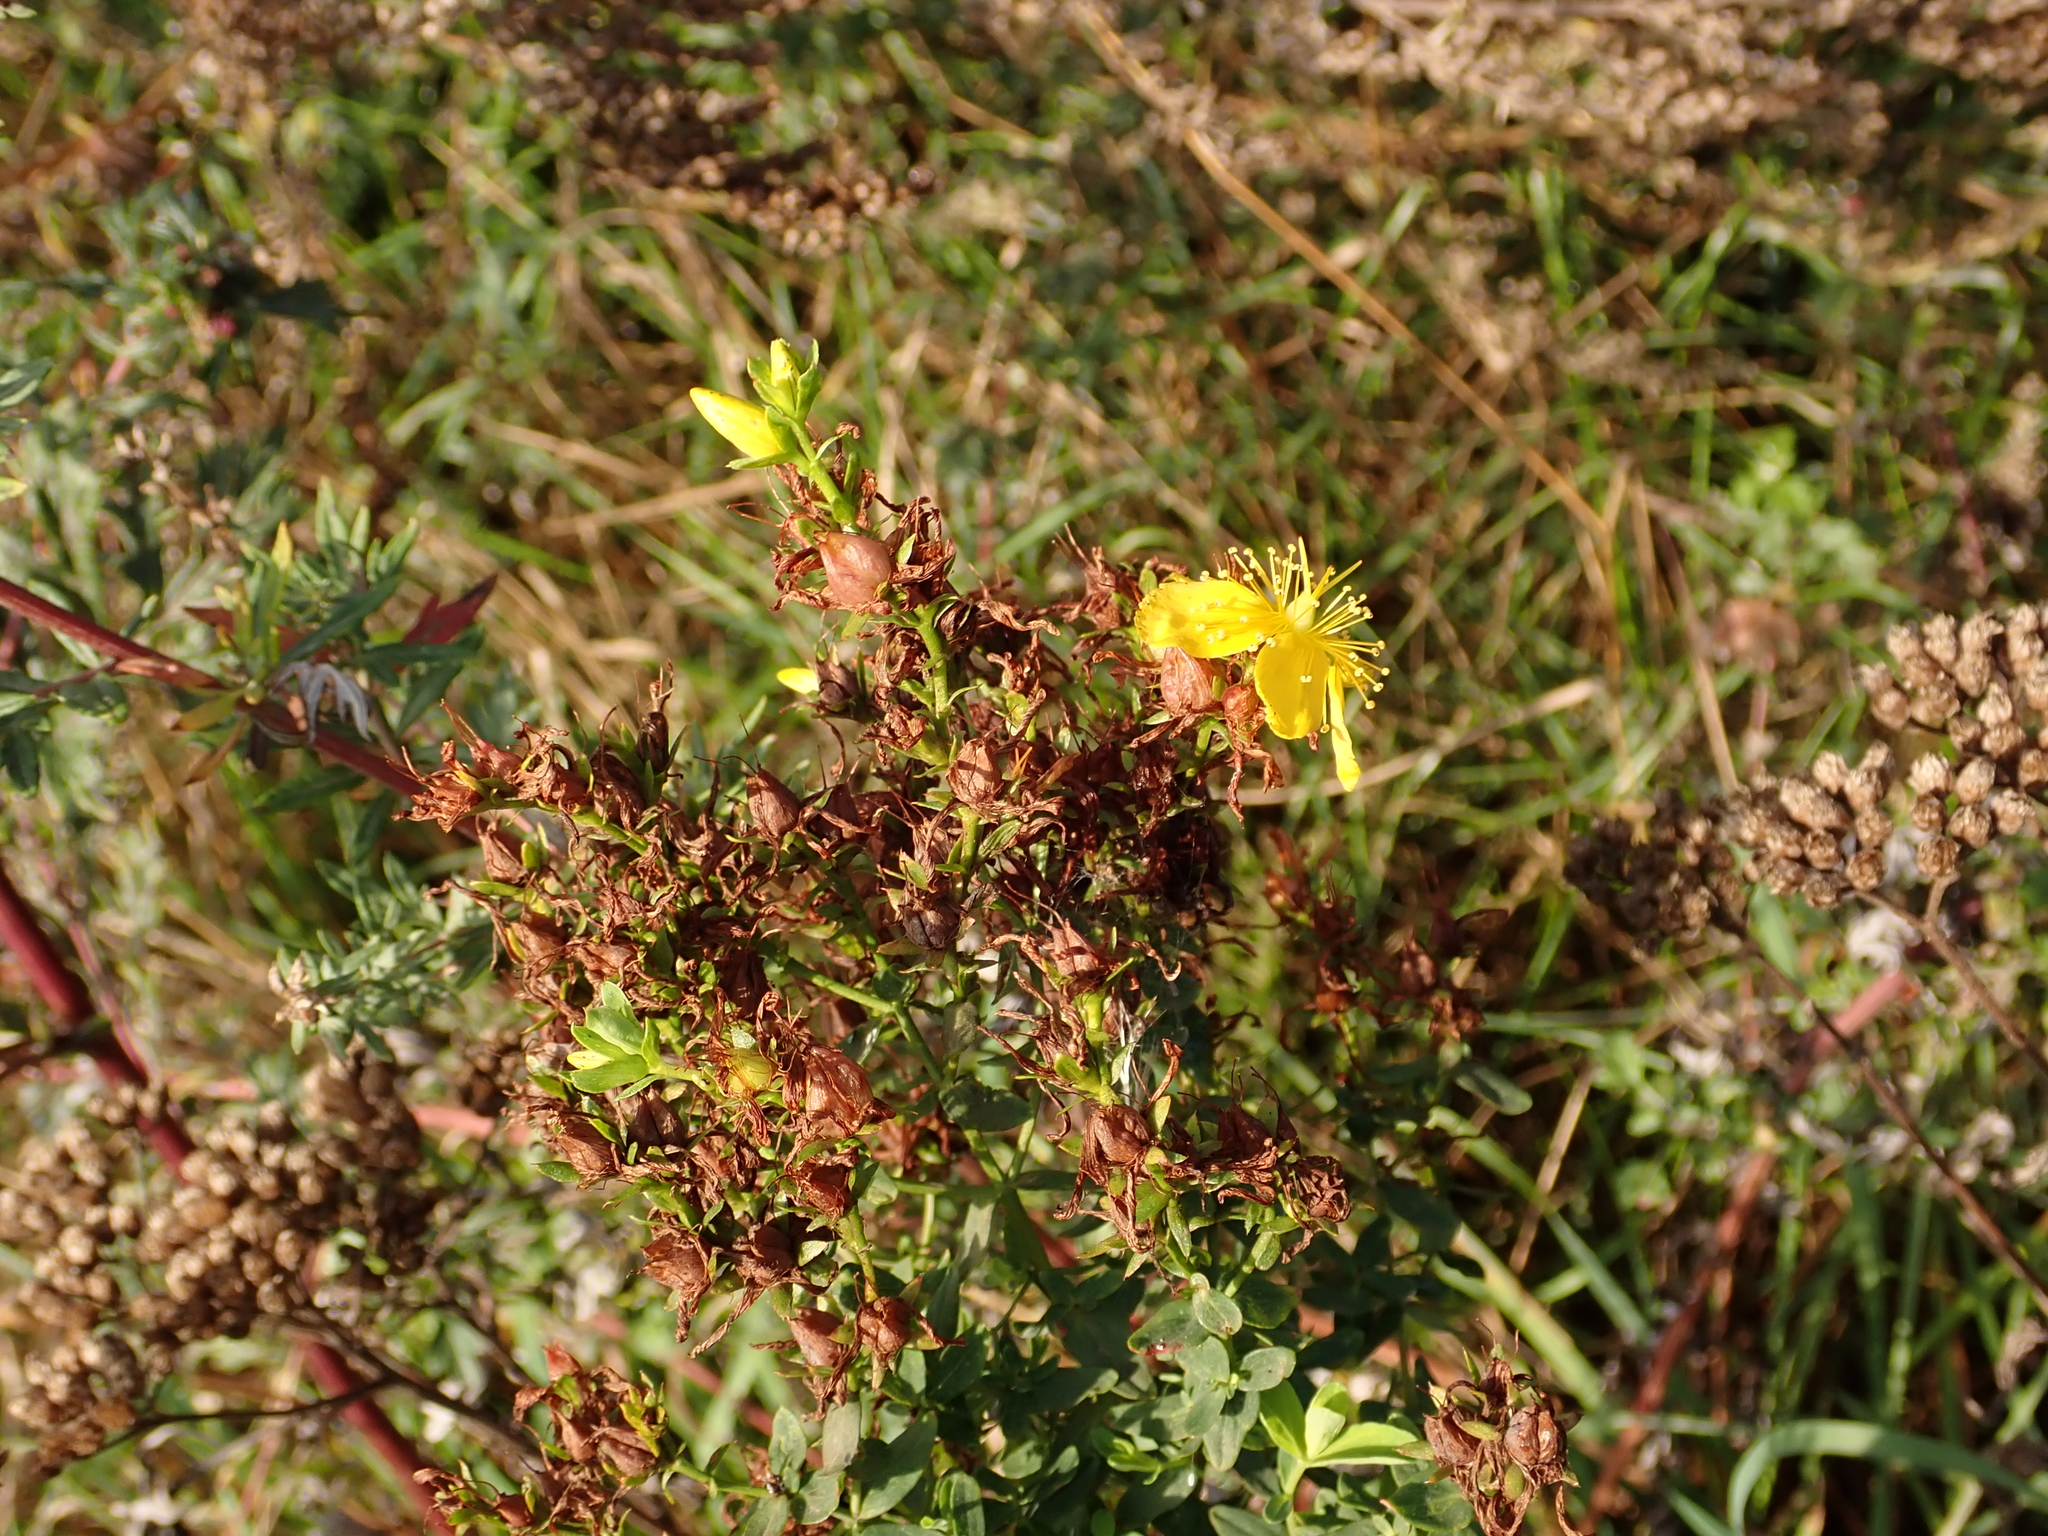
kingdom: Plantae
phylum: Tracheophyta
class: Magnoliopsida
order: Malpighiales
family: Hypericaceae
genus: Hypericum
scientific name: Hypericum perforatum
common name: Common st. johnswort
